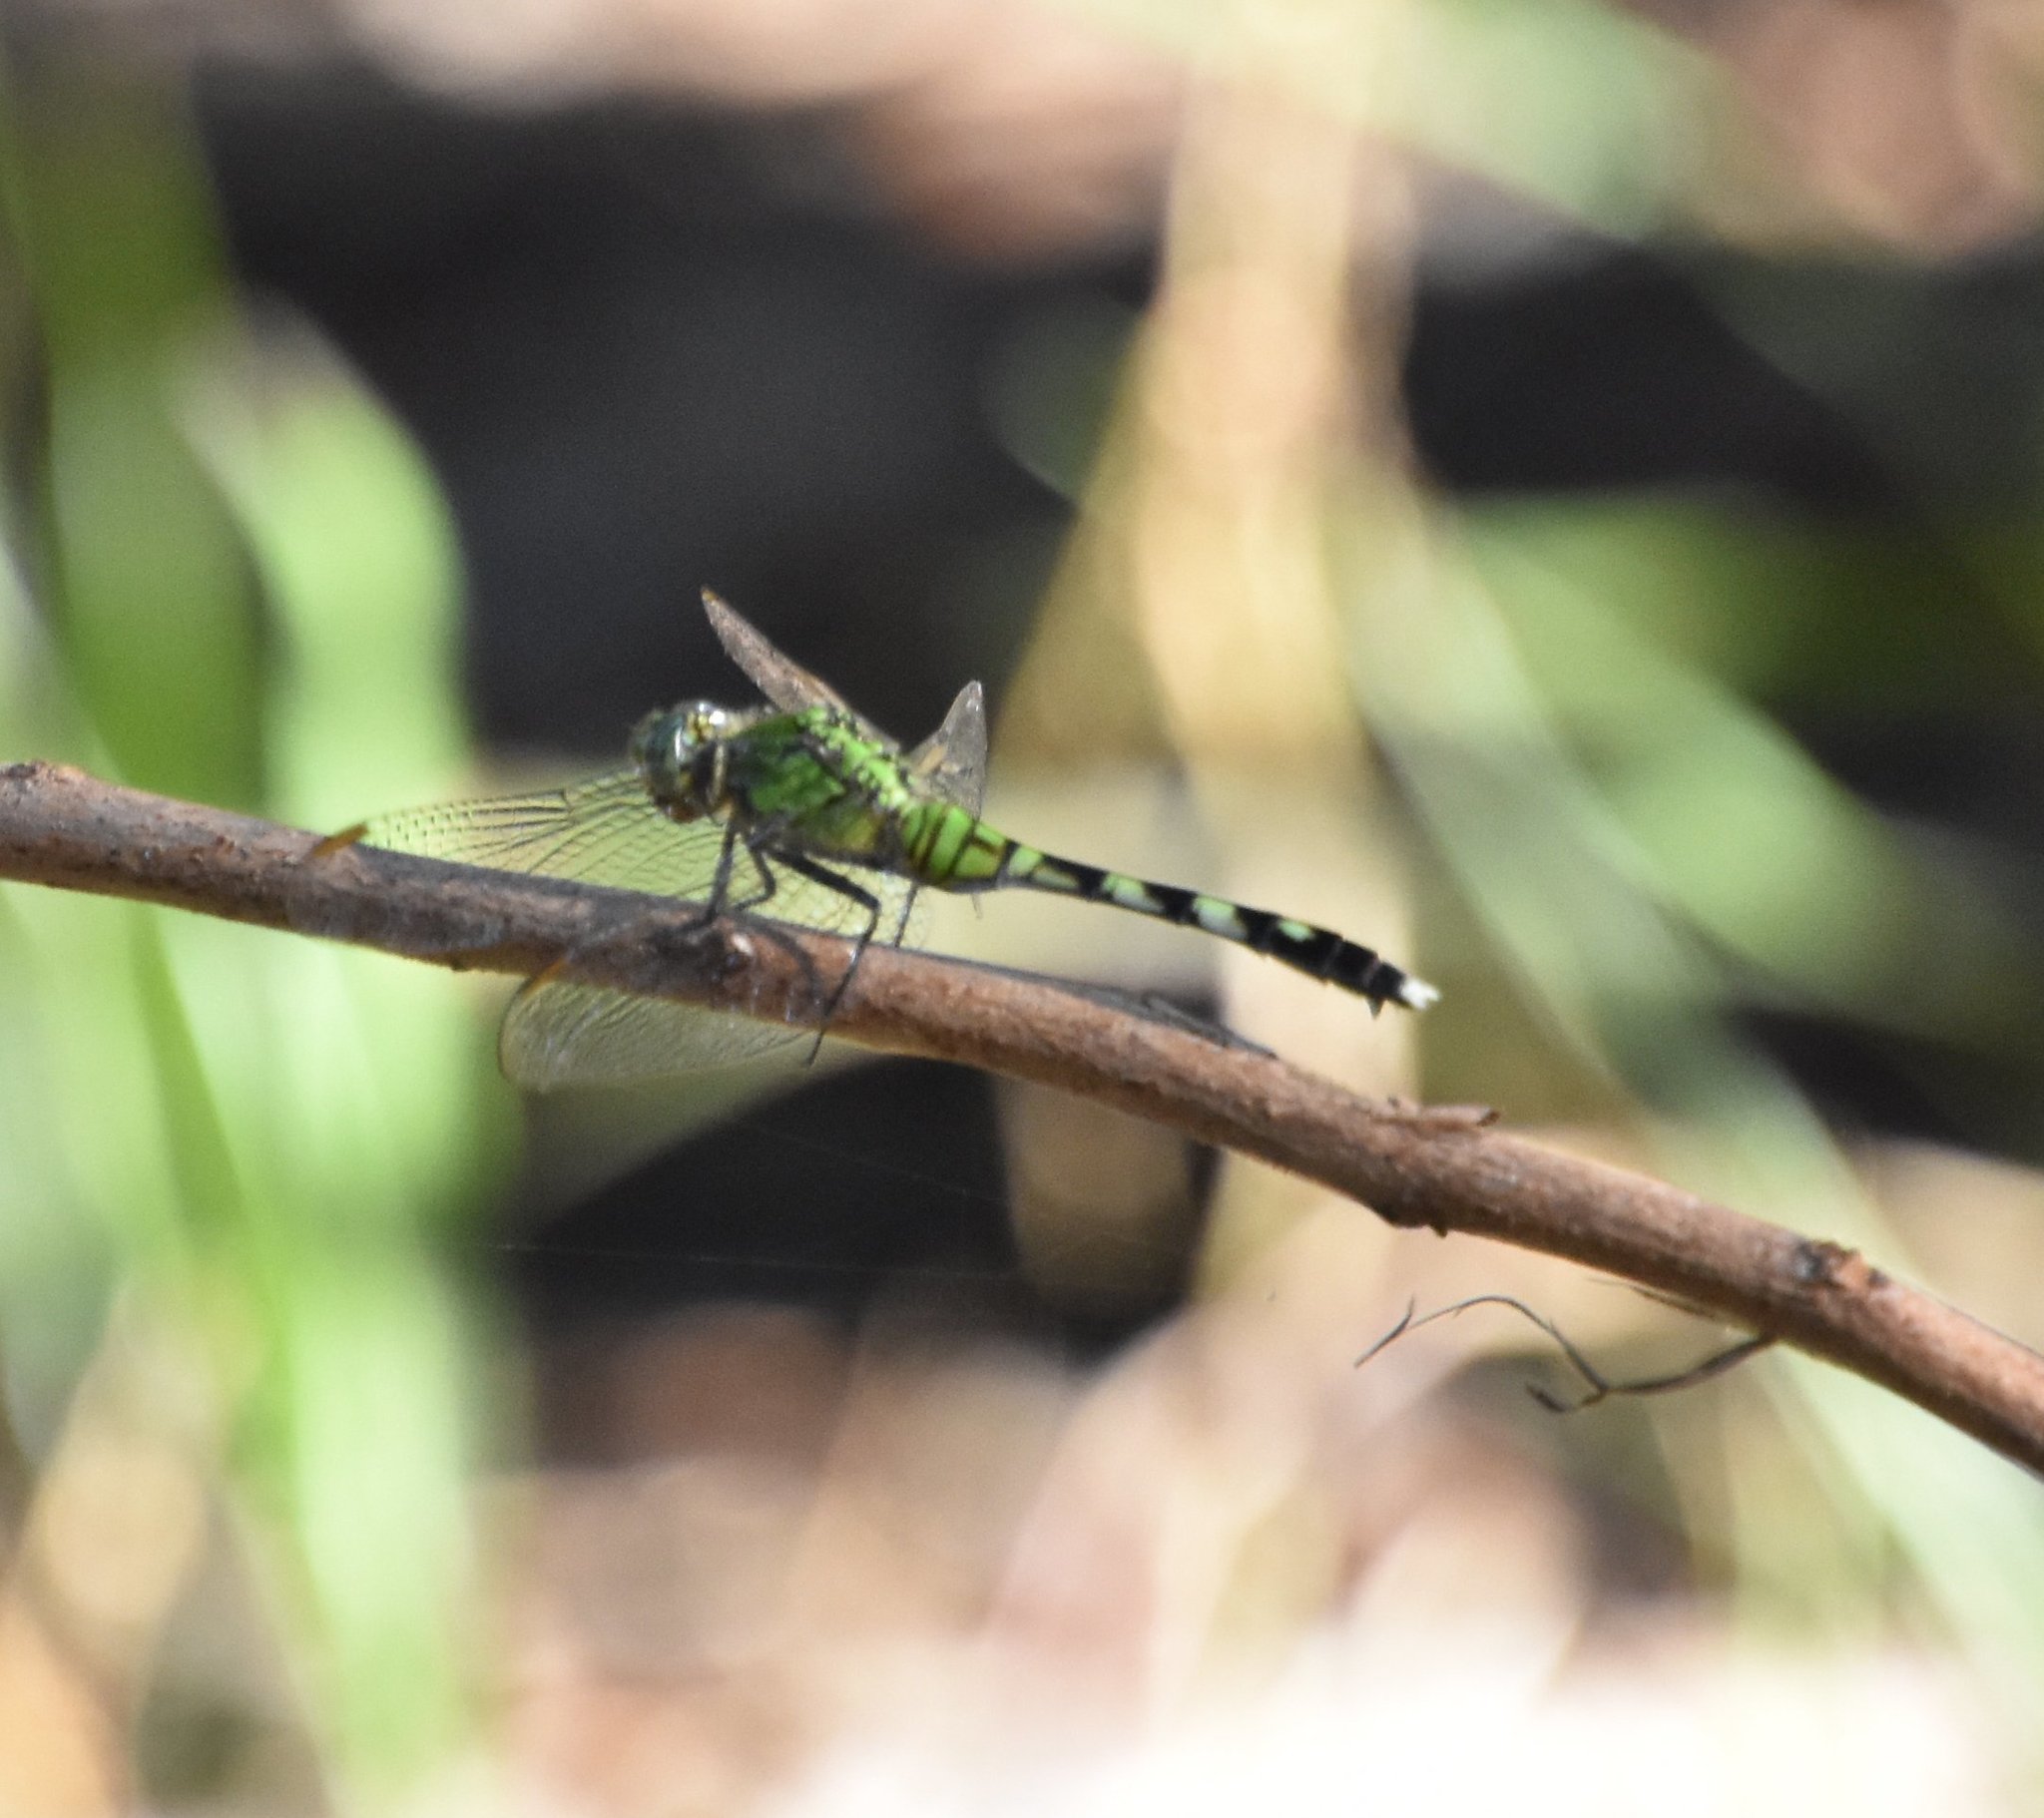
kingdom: Animalia
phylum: Arthropoda
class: Insecta
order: Odonata
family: Libellulidae
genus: Erythemis
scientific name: Erythemis simplicicollis
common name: Eastern pondhawk
